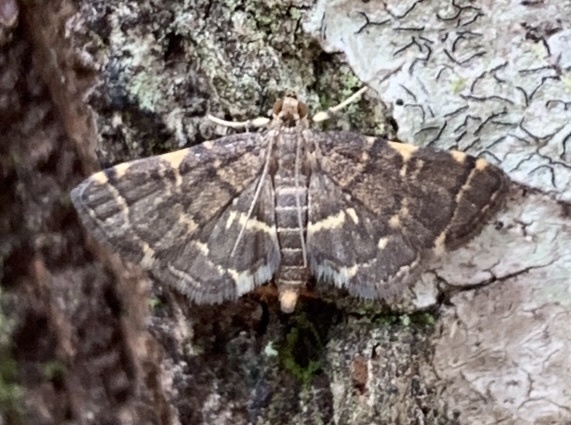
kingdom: Animalia
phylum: Arthropoda
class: Insecta
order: Lepidoptera
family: Crambidae
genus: Anageshna
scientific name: Anageshna primordialis
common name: Yellow-spotted webworm moth
